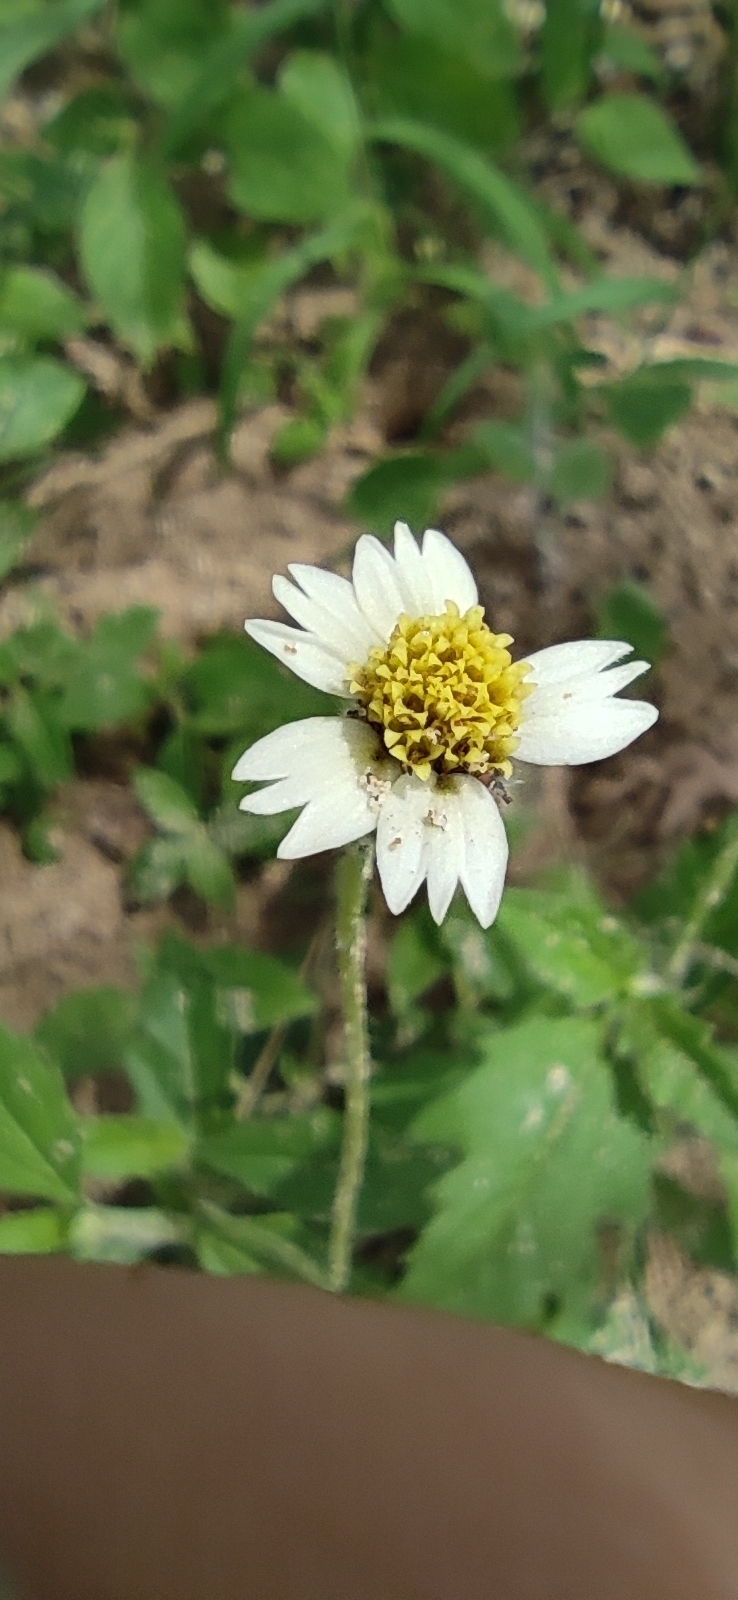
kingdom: Plantae
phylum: Tracheophyta
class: Magnoliopsida
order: Asterales
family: Asteraceae
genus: Tridax
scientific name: Tridax procumbens
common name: Coatbuttons
